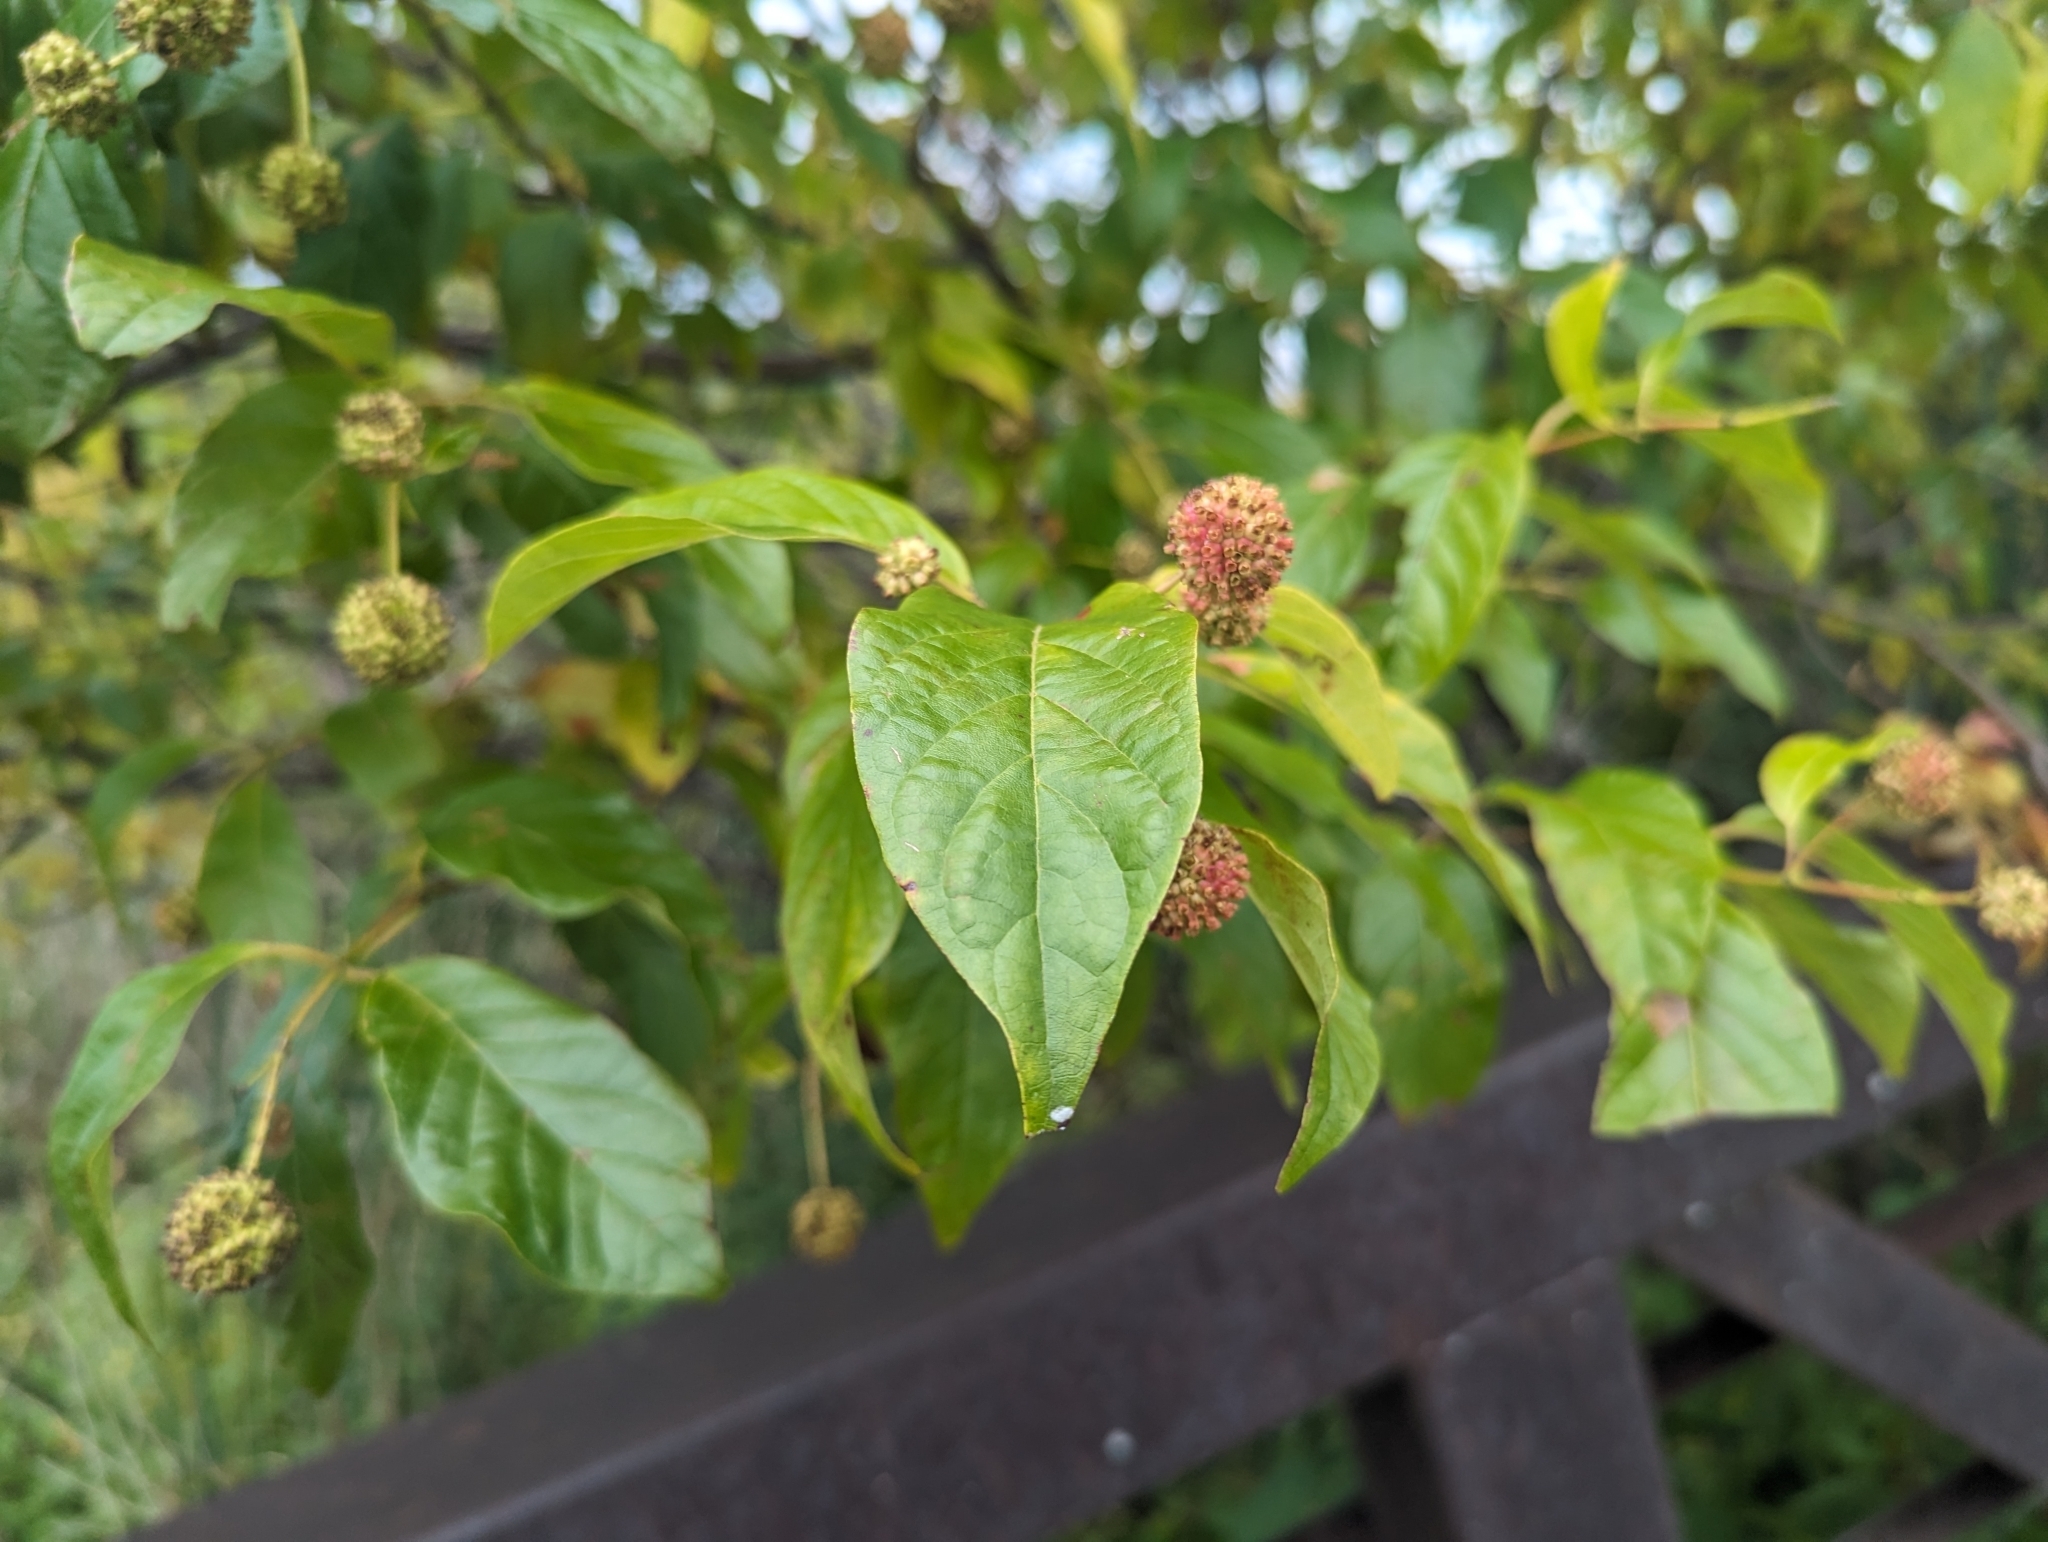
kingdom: Plantae
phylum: Tracheophyta
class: Magnoliopsida
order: Gentianales
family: Rubiaceae
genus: Cephalanthus
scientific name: Cephalanthus occidentalis
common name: Button-willow
